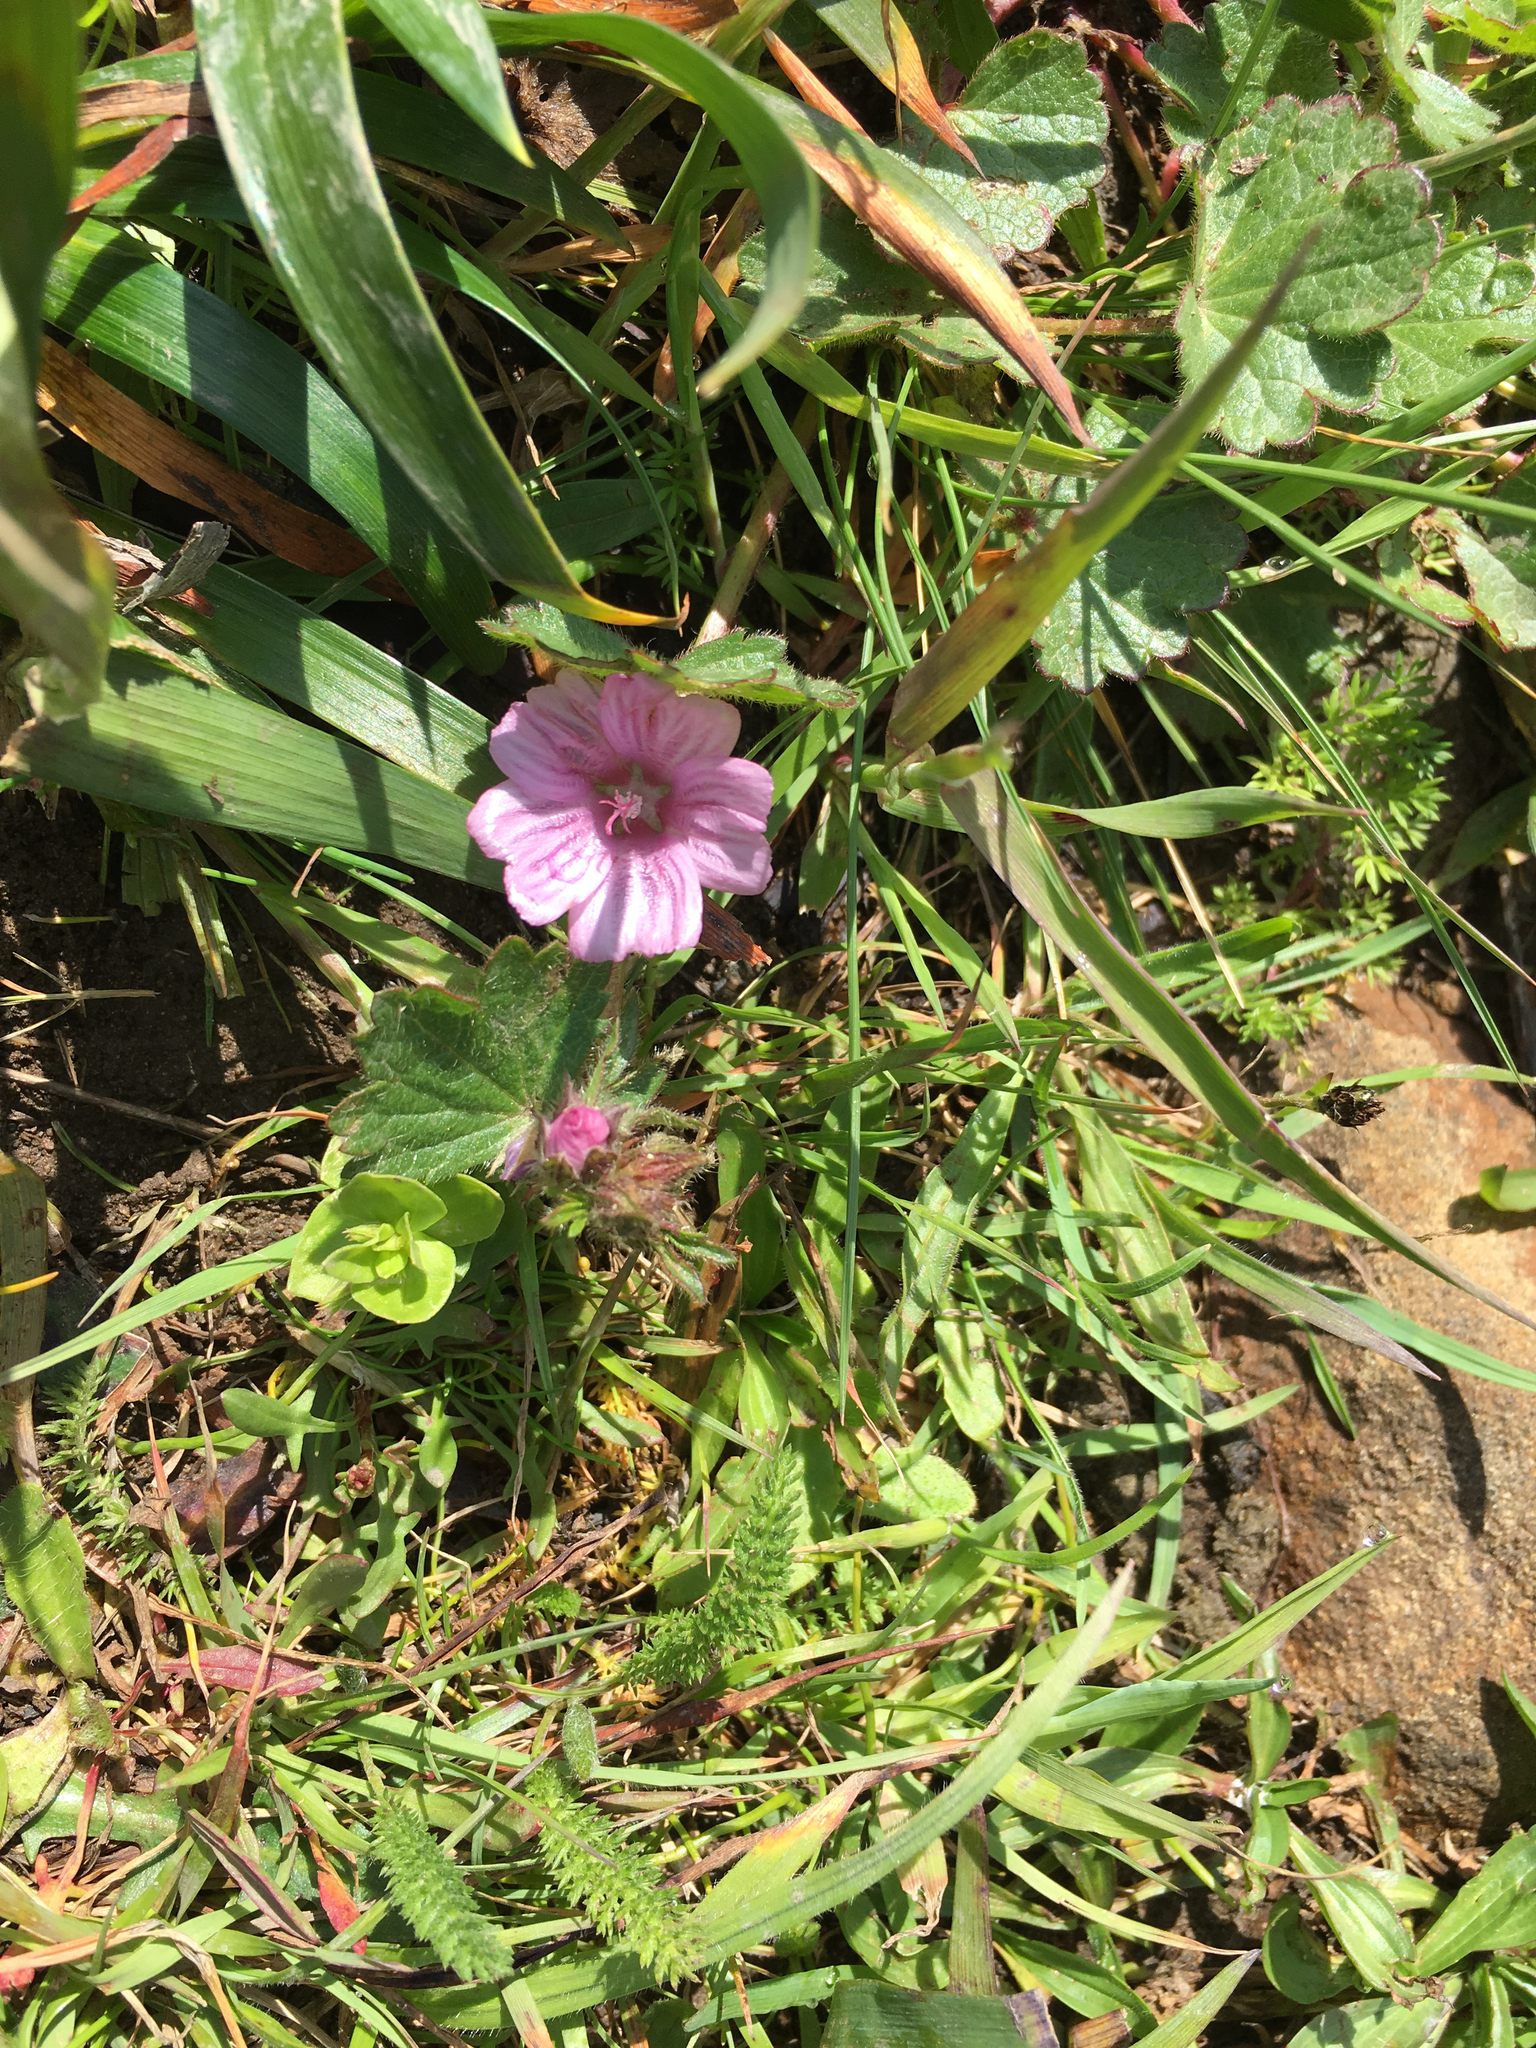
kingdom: Plantae
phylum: Tracheophyta
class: Magnoliopsida
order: Malvales
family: Malvaceae
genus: Sidalcea
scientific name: Sidalcea malviflora
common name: Greek mallow
